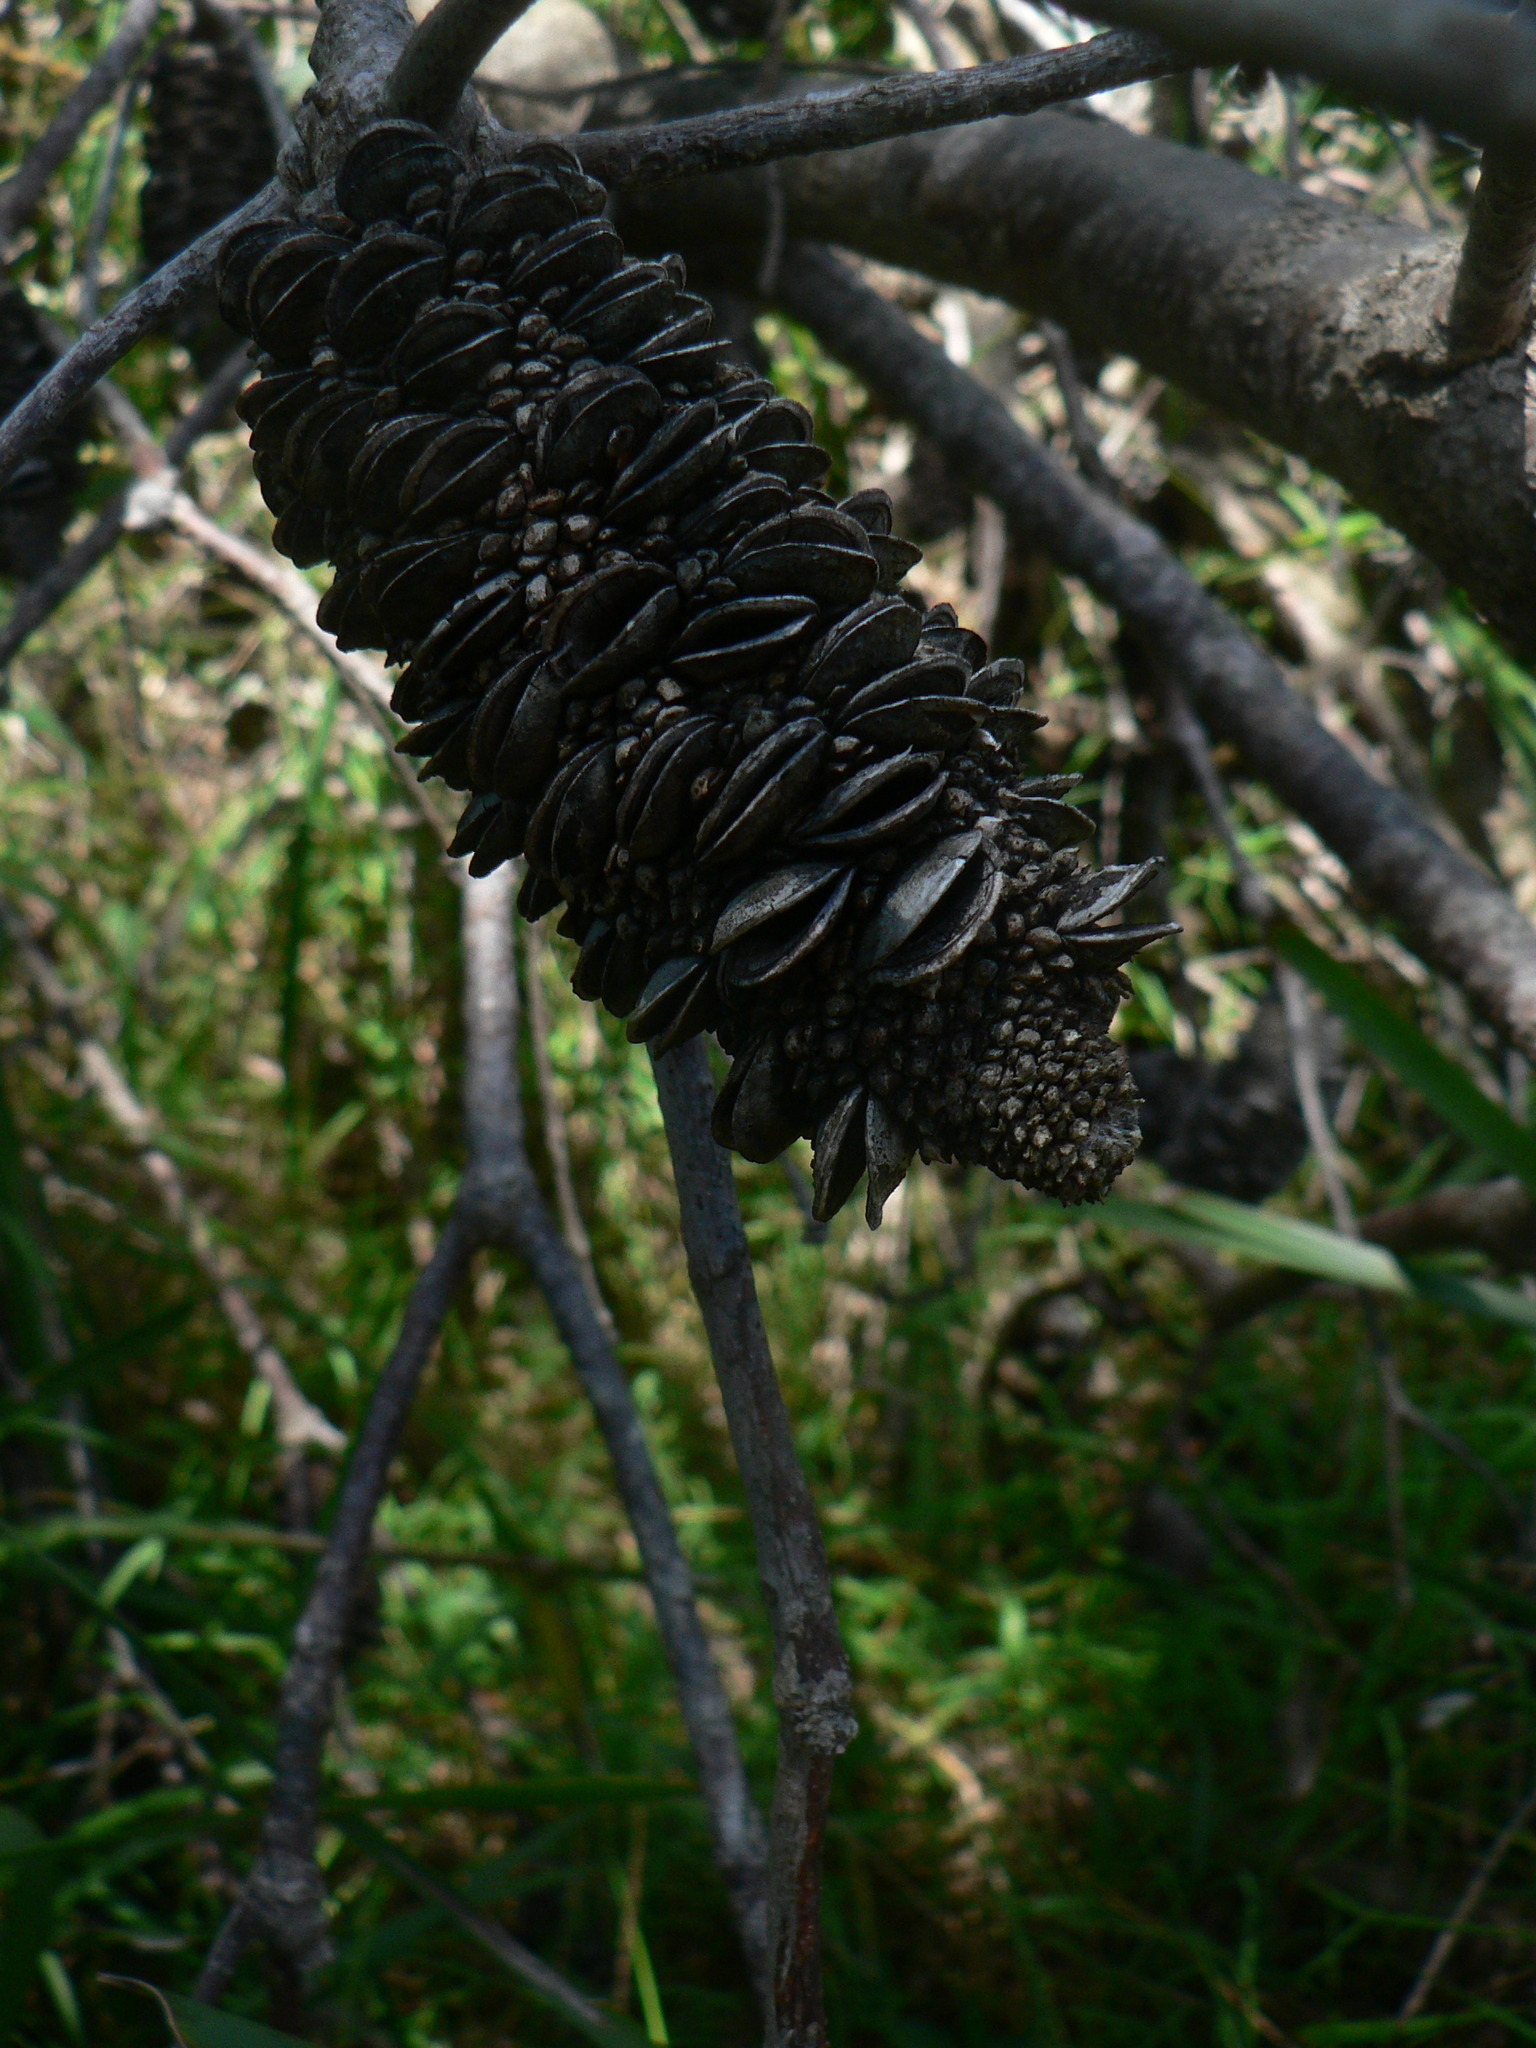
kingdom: Plantae
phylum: Tracheophyta
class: Magnoliopsida
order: Proteales
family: Proteaceae
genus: Banksia
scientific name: Banksia integrifolia
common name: White-honeysuckle
